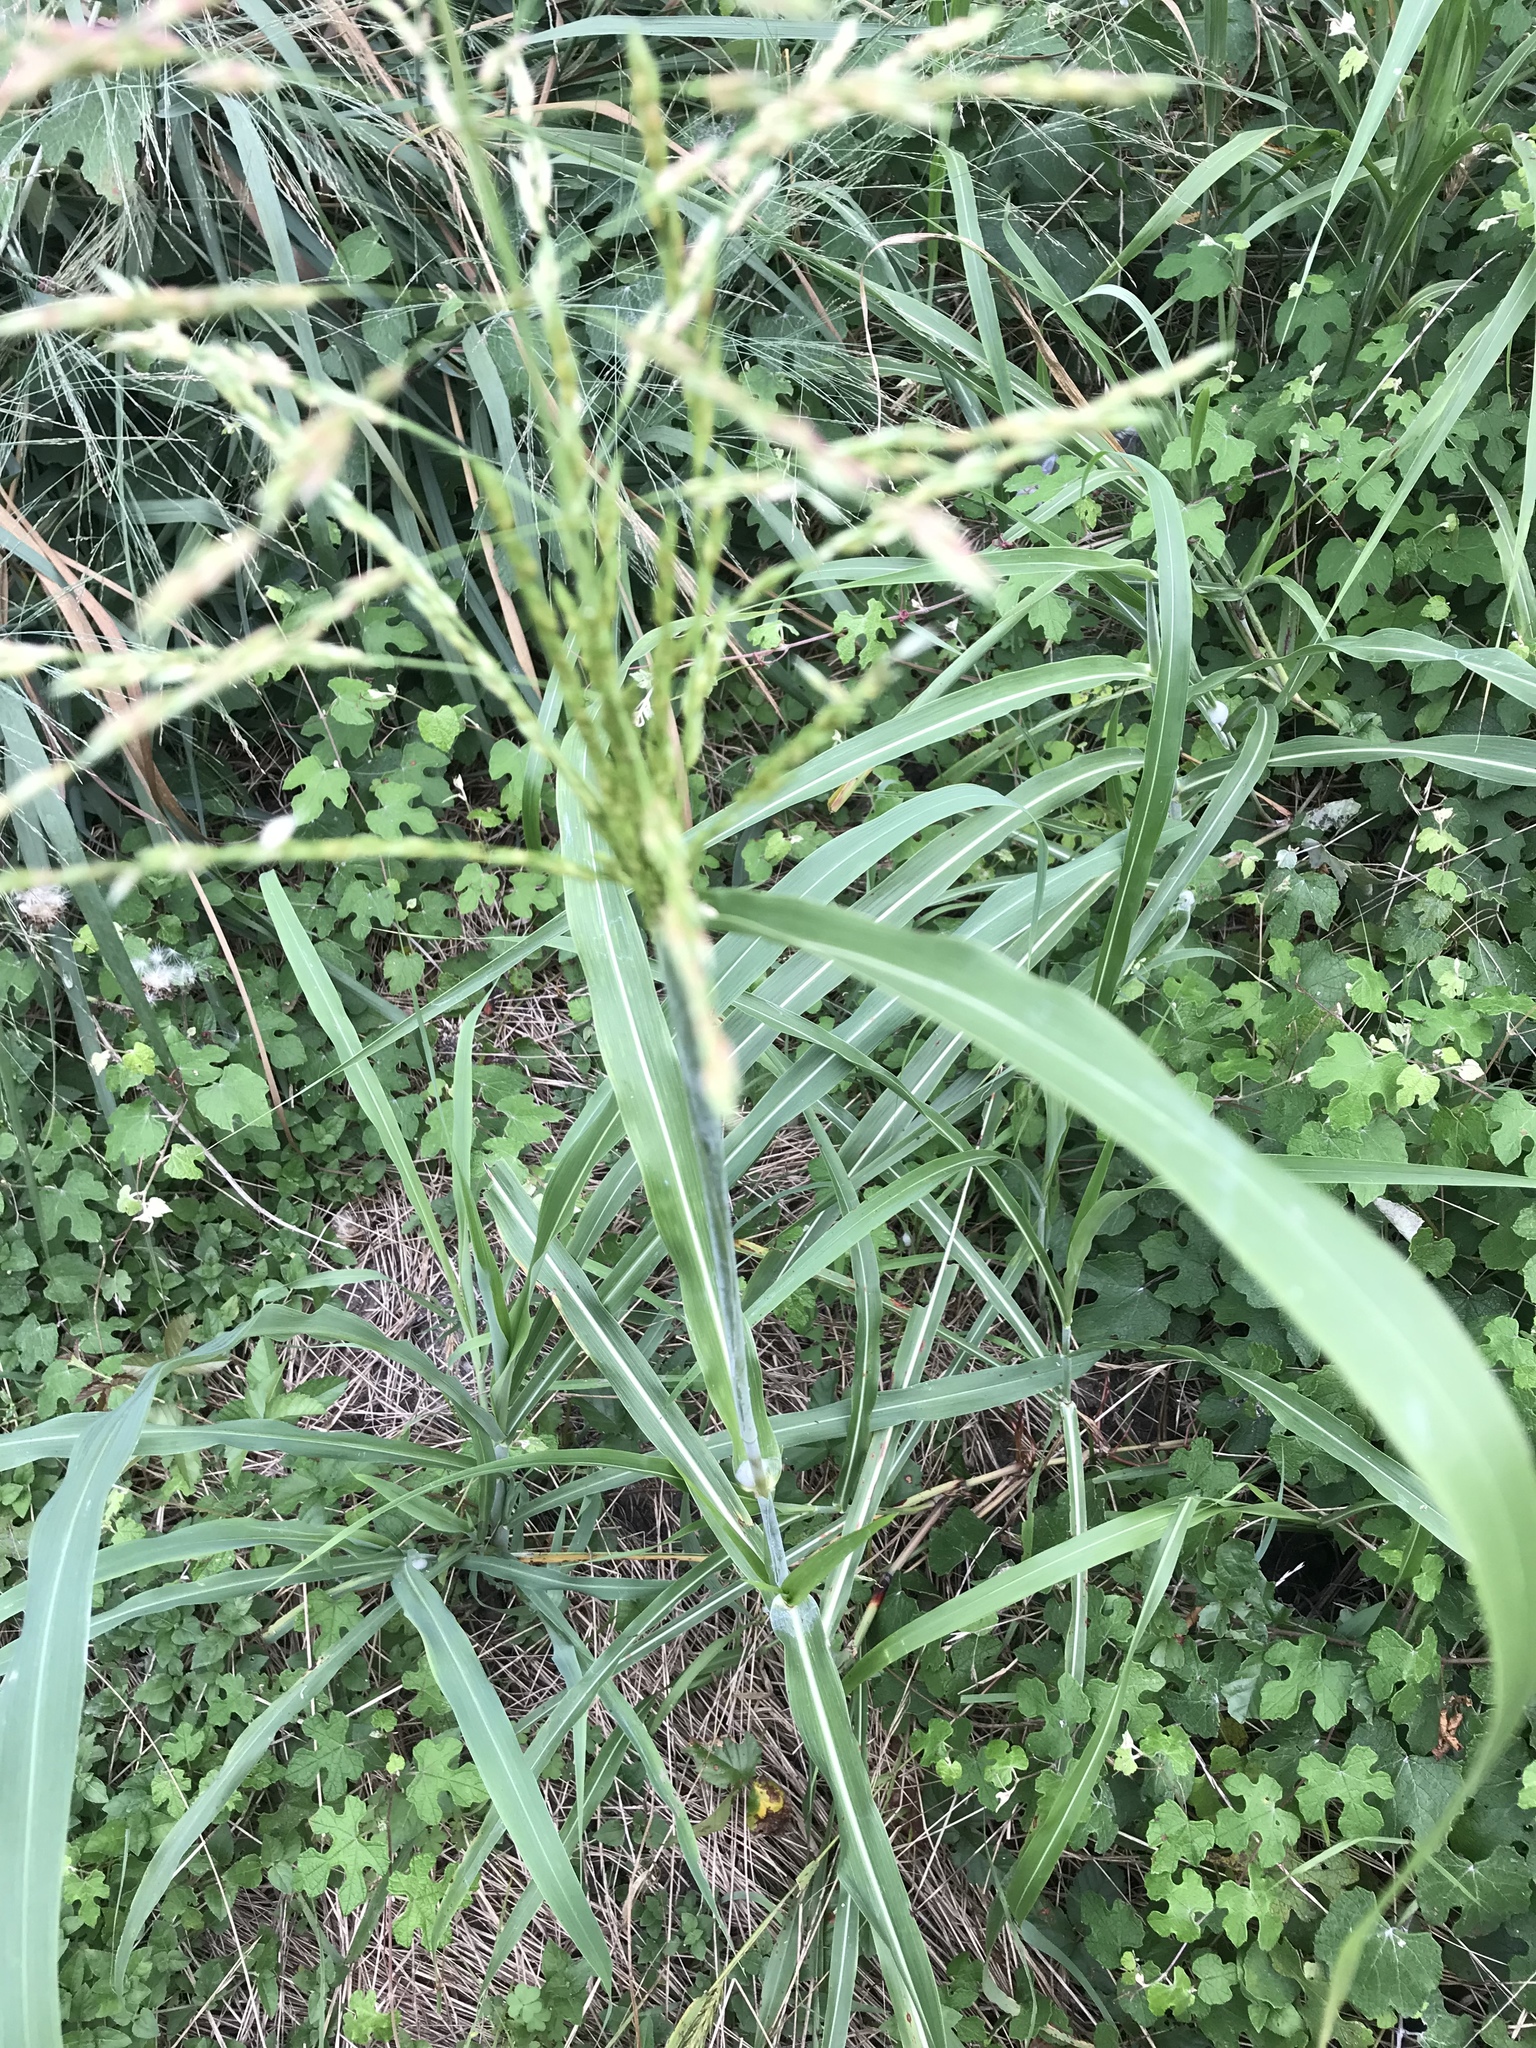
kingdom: Plantae
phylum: Tracheophyta
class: Liliopsida
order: Poales
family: Poaceae
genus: Sorghum
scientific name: Sorghum halepense
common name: Johnson-grass
